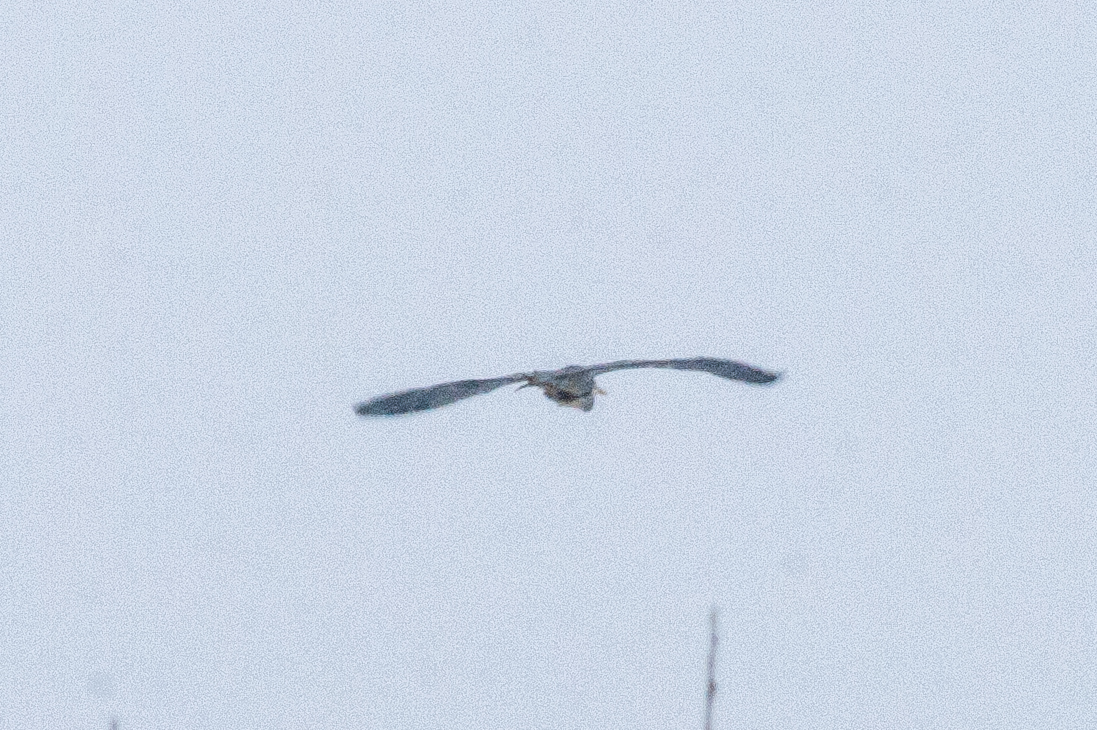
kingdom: Animalia
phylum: Chordata
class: Aves
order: Pelecaniformes
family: Ardeidae
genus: Ardea
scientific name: Ardea cinerea
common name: Grey heron
